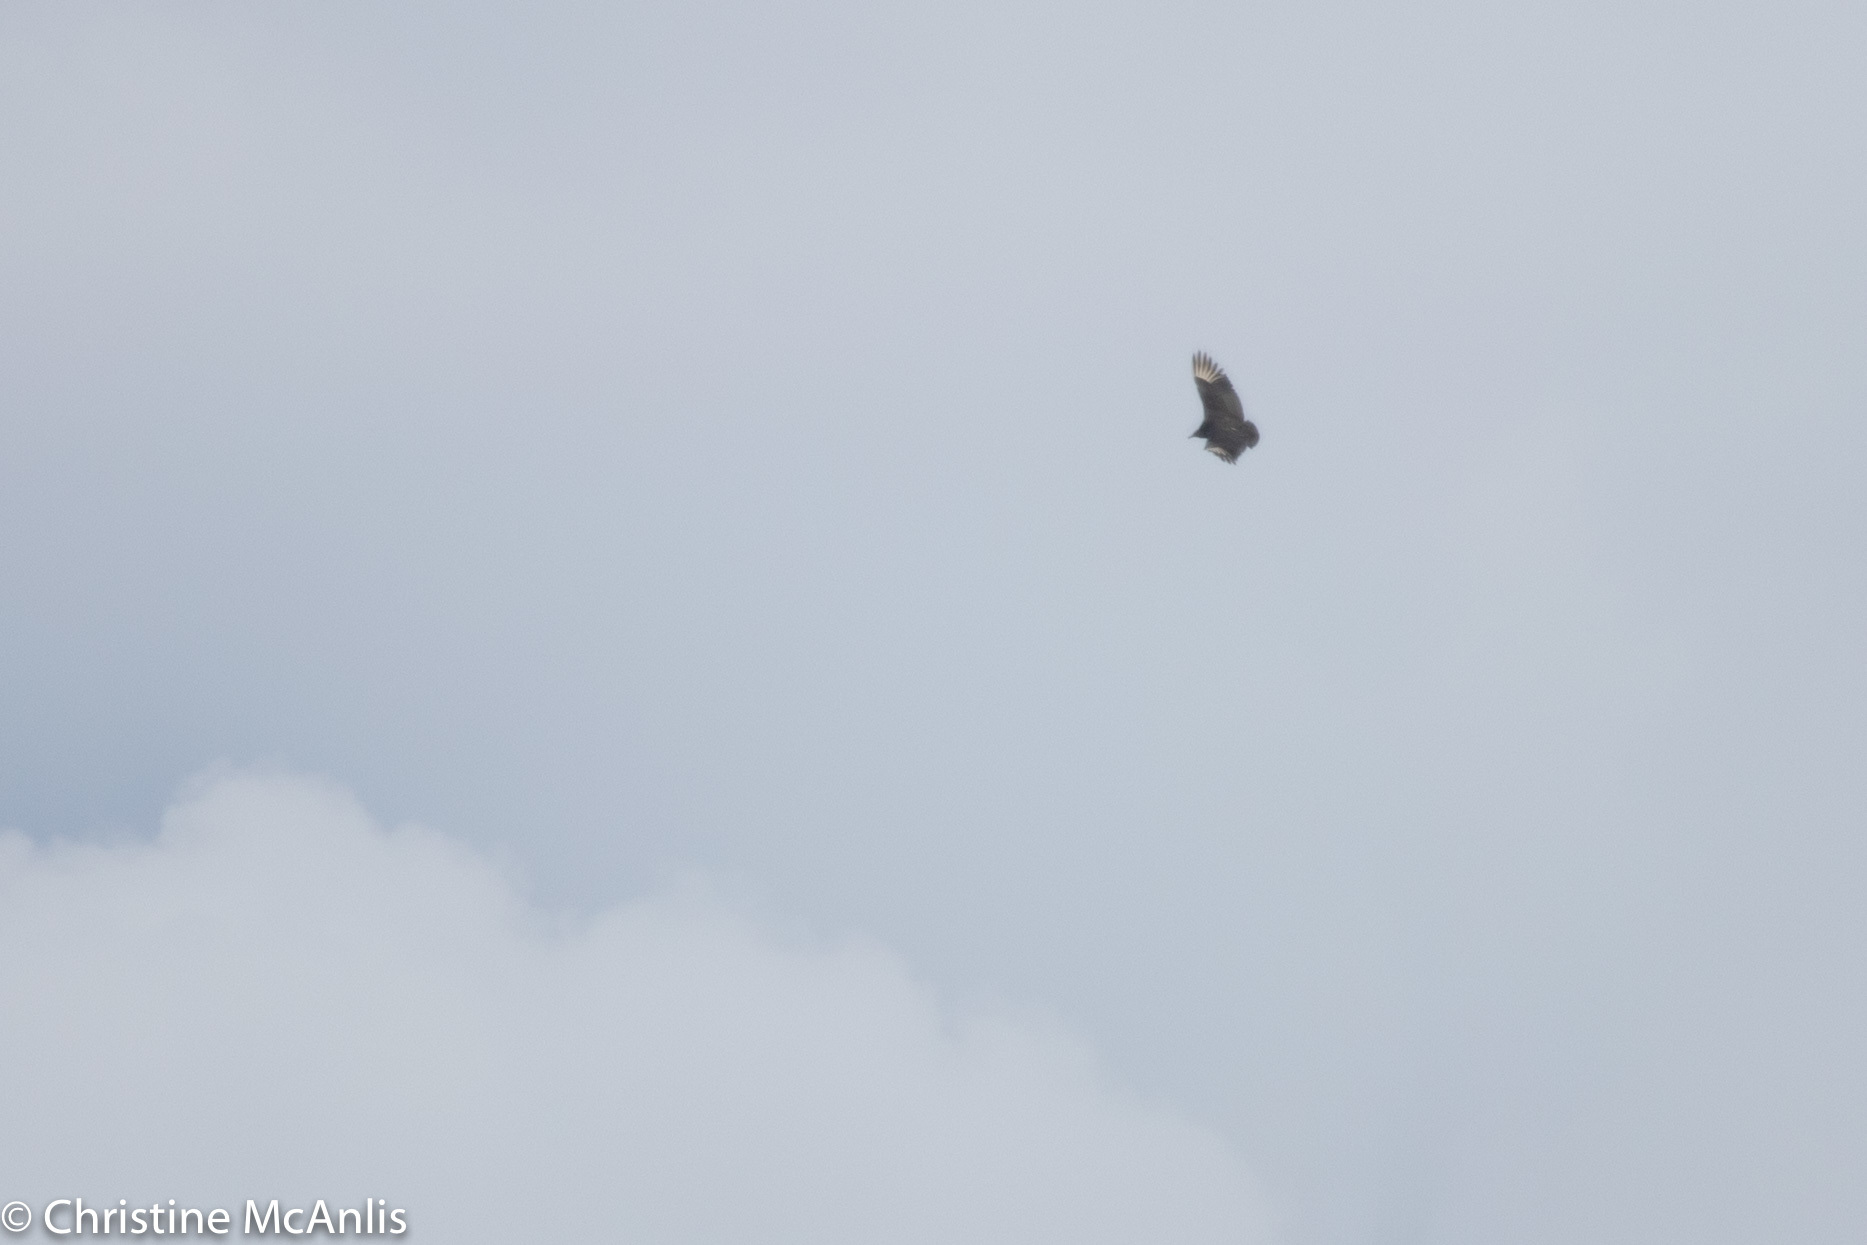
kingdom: Animalia
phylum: Chordata
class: Aves
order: Accipitriformes
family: Cathartidae
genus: Coragyps
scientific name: Coragyps atratus
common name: Black vulture
